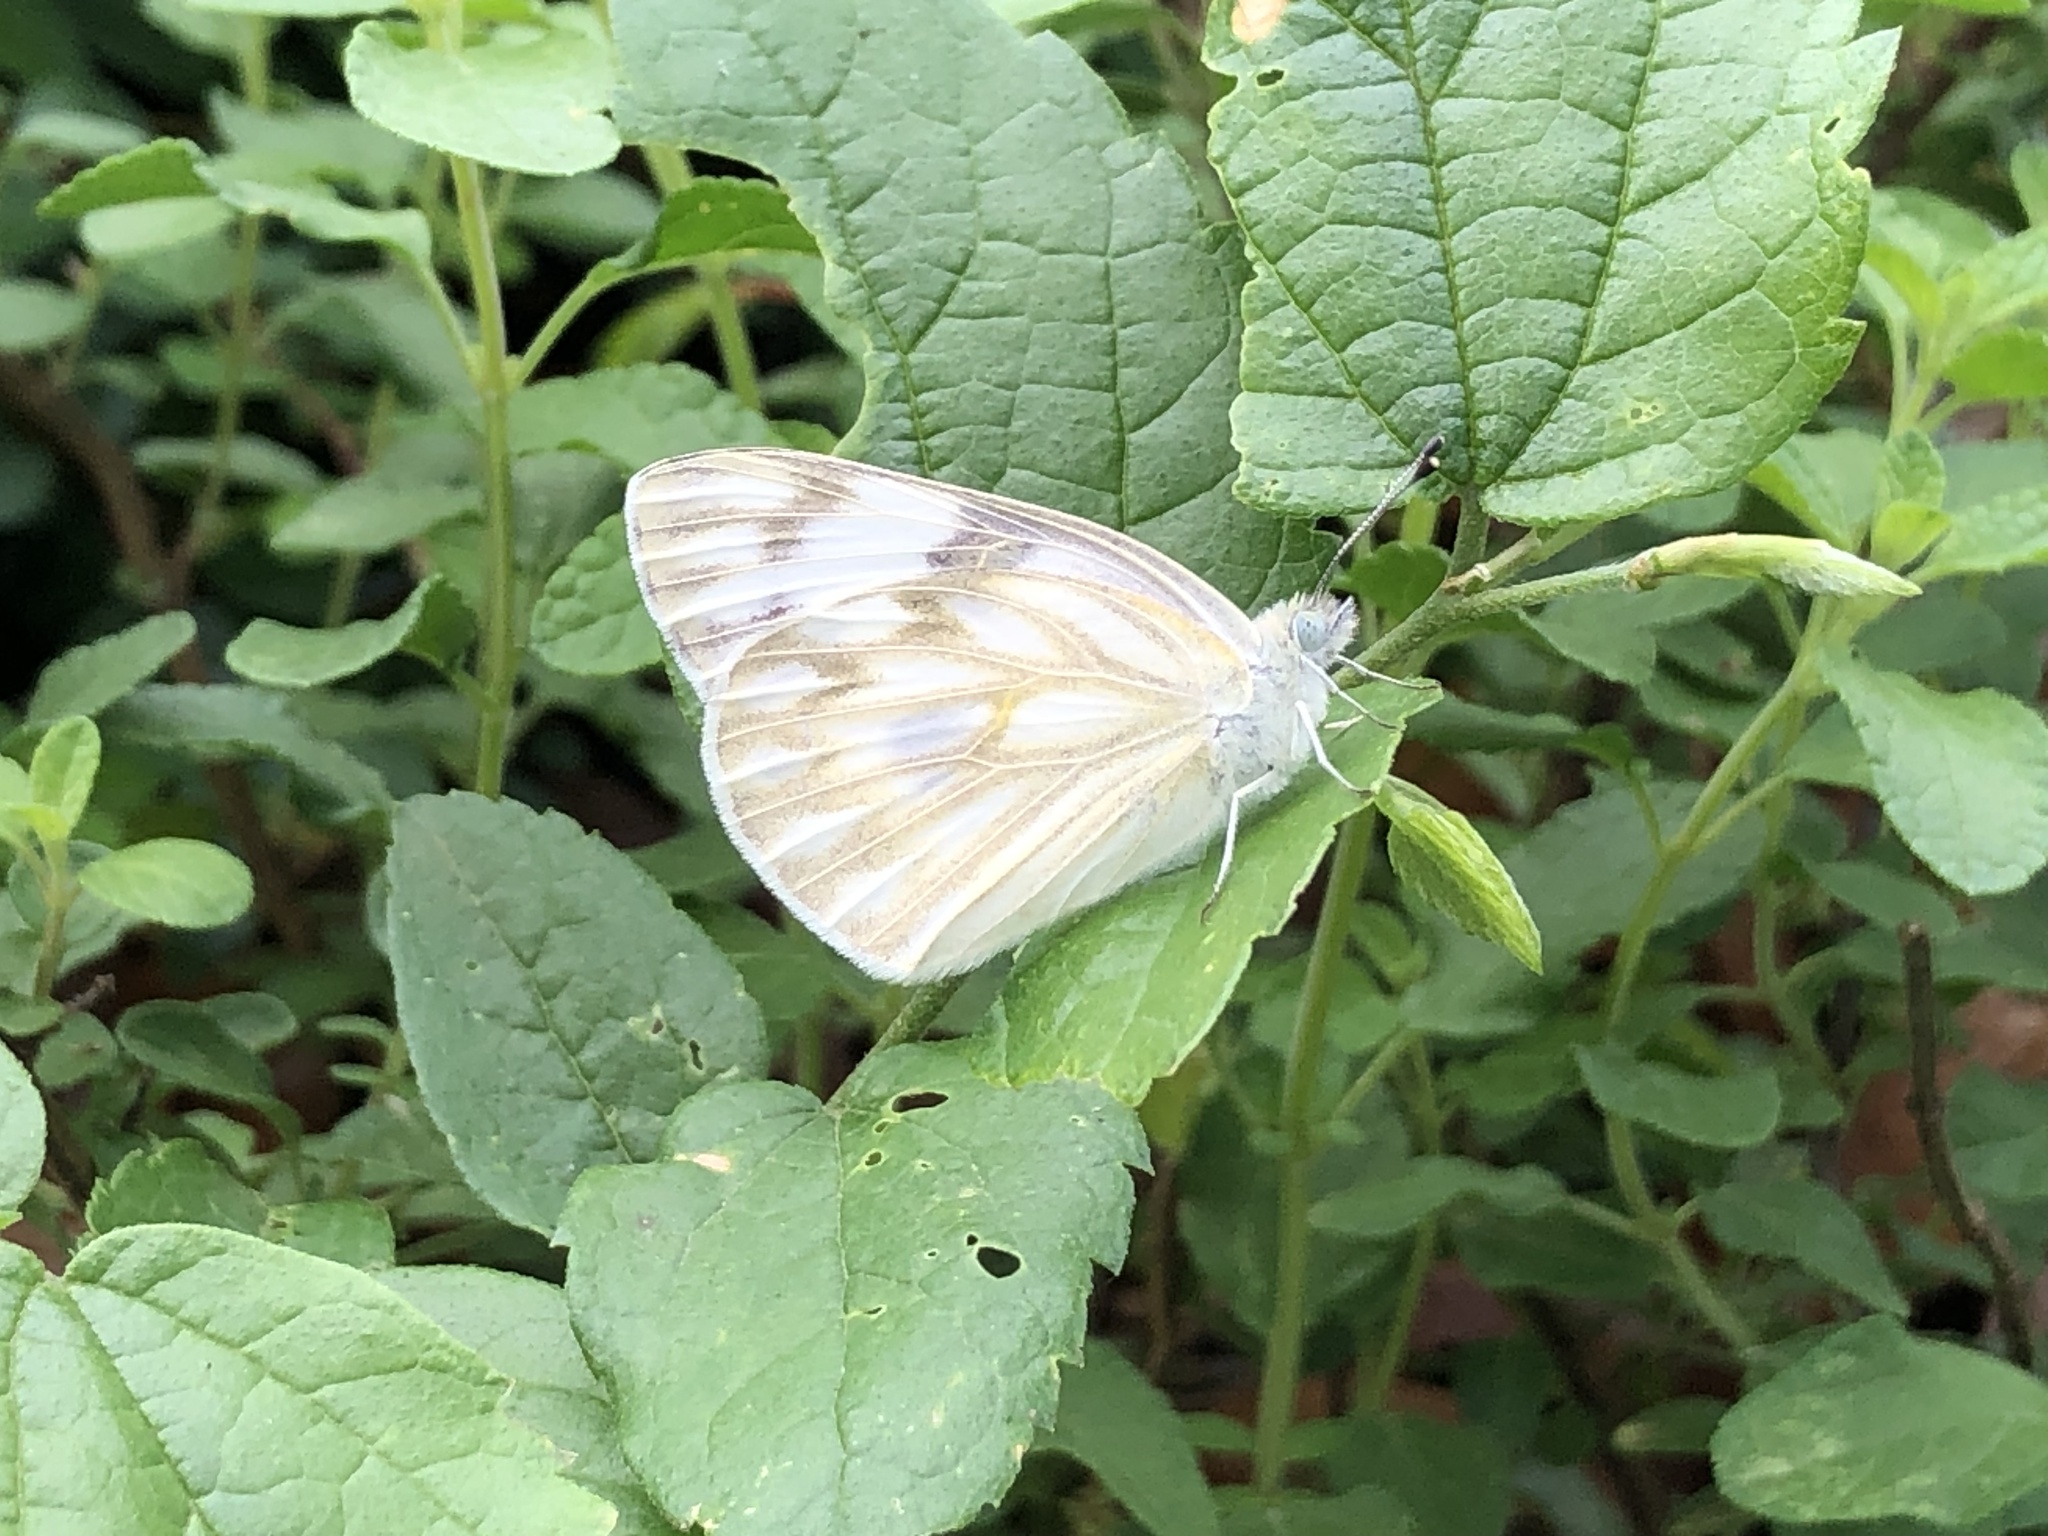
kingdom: Animalia
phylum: Arthropoda
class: Insecta
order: Lepidoptera
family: Pieridae
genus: Pontia
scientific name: Pontia protodice
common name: Checkered white
